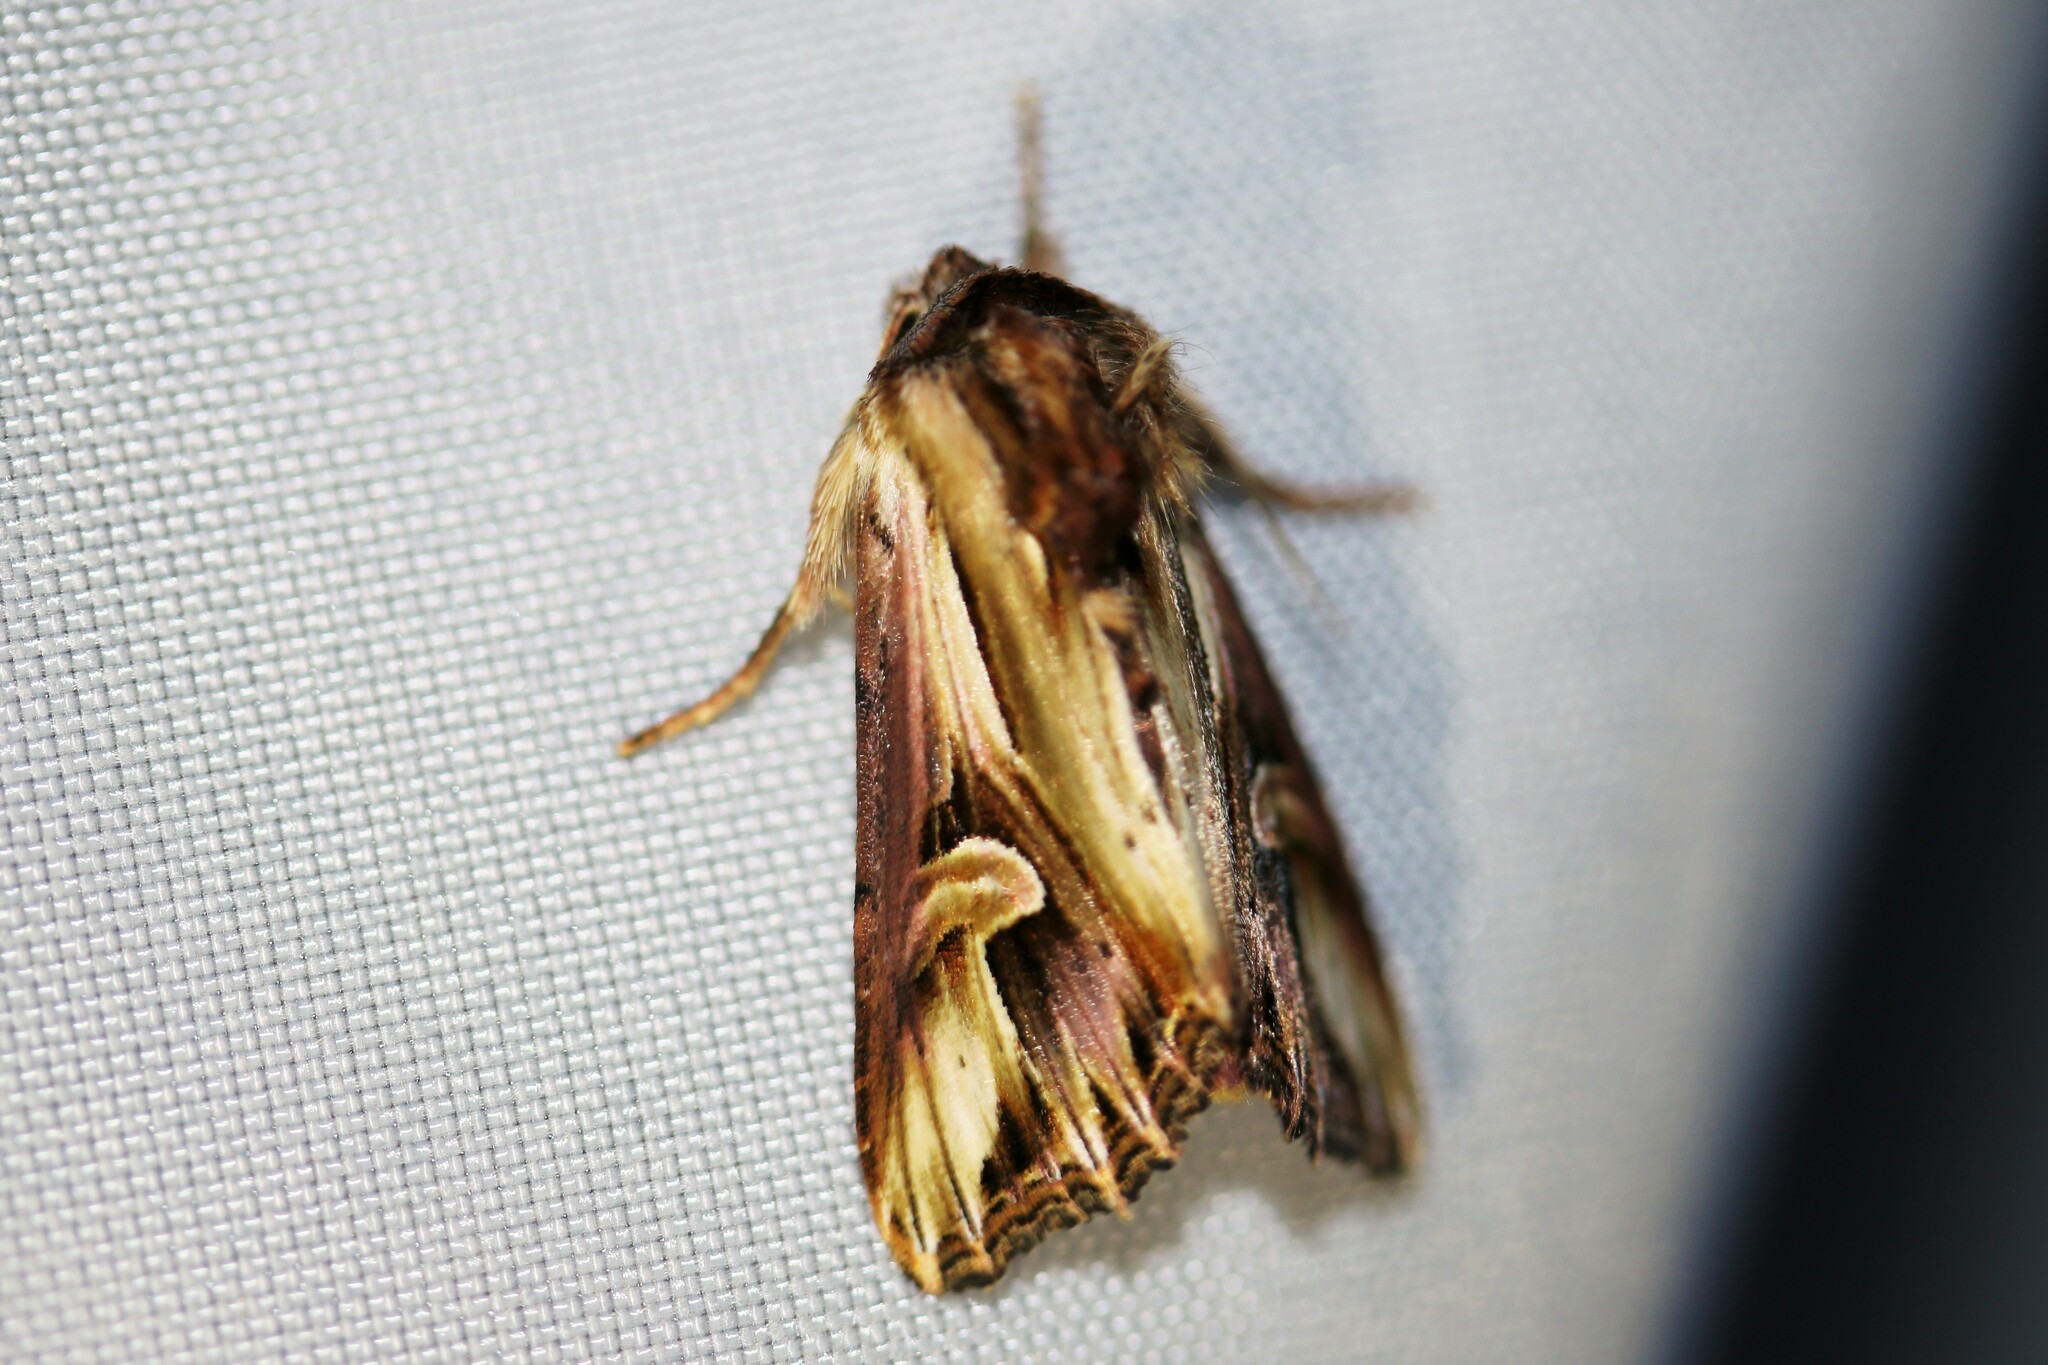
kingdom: Animalia
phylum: Arthropoda
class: Insecta
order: Lepidoptera
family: Noctuidae
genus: Actinotia
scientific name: Actinotia polyodon
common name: Purple cloud
